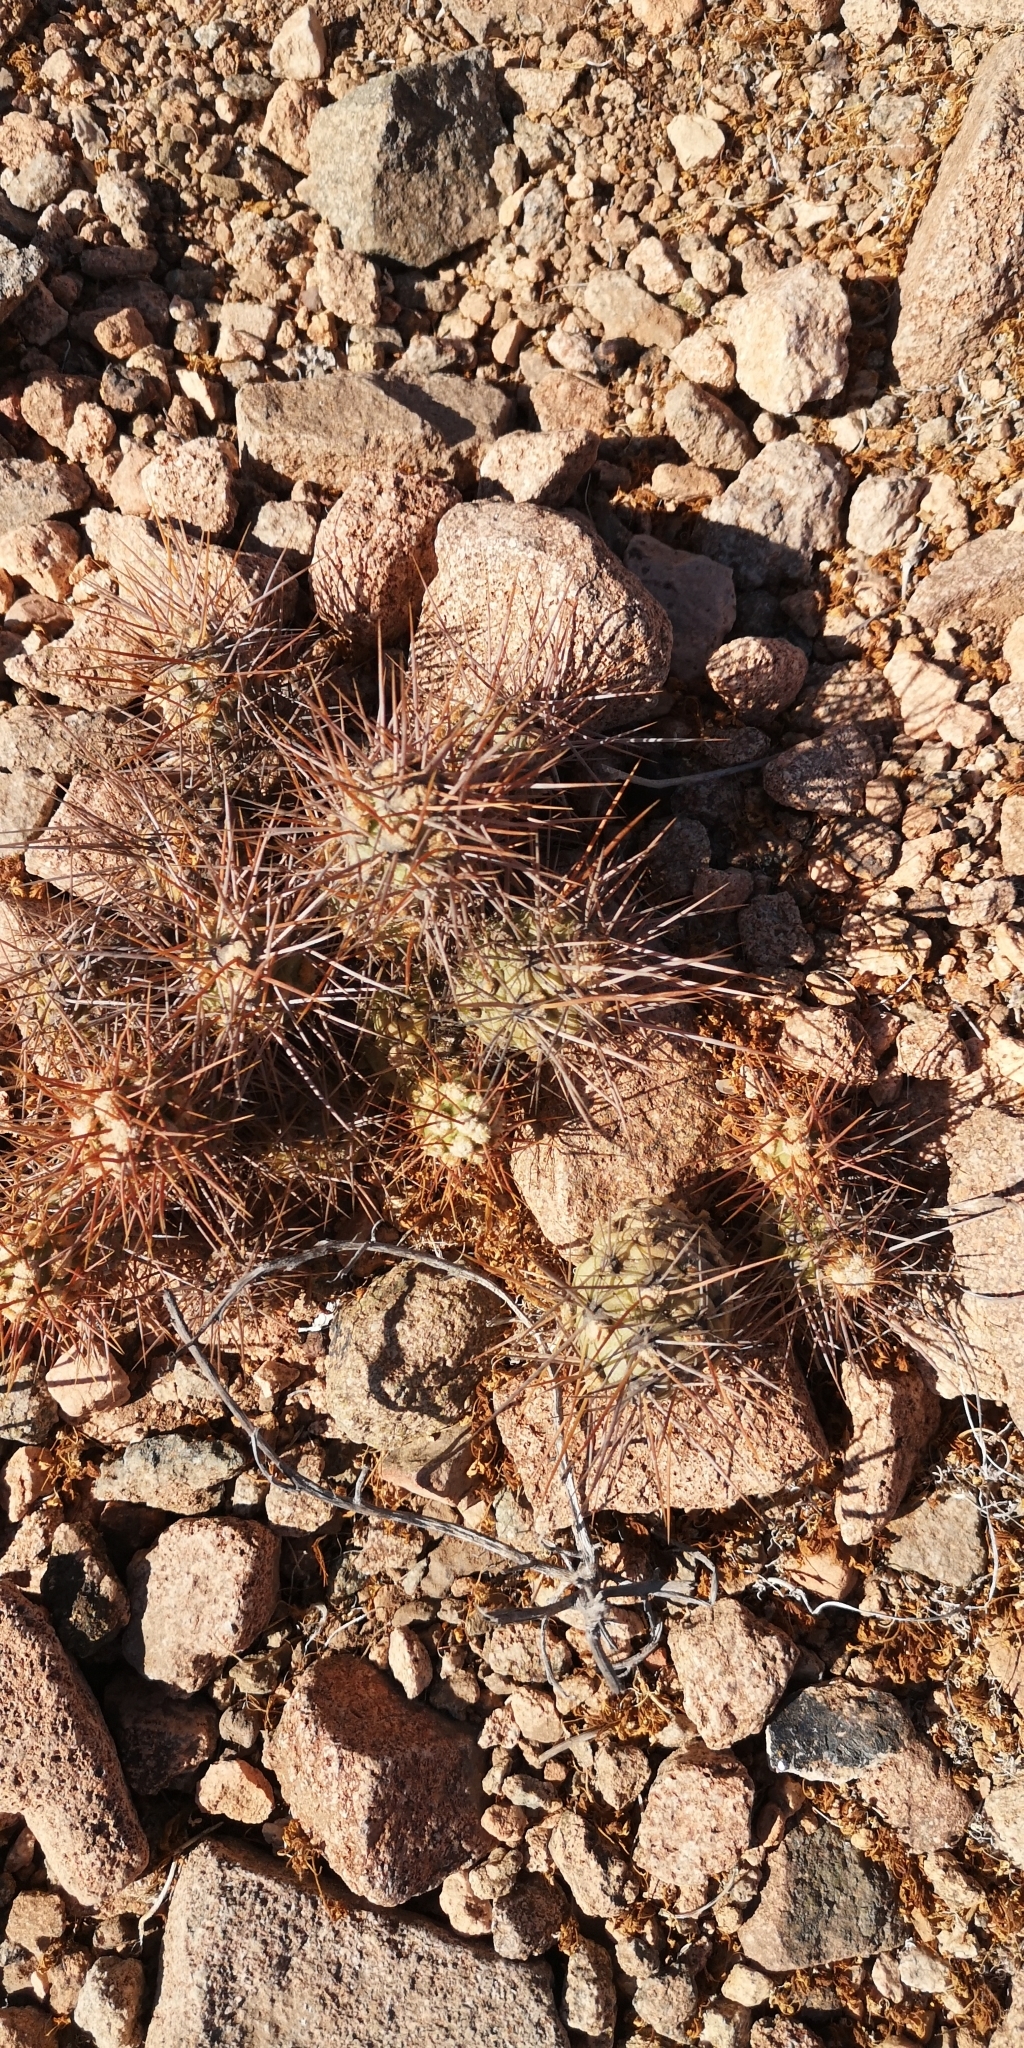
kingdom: Plantae
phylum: Tracheophyta
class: Magnoliopsida
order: Caryophyllales
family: Cactaceae
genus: Cumulopuntia
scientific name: Cumulopuntia leucophaea
